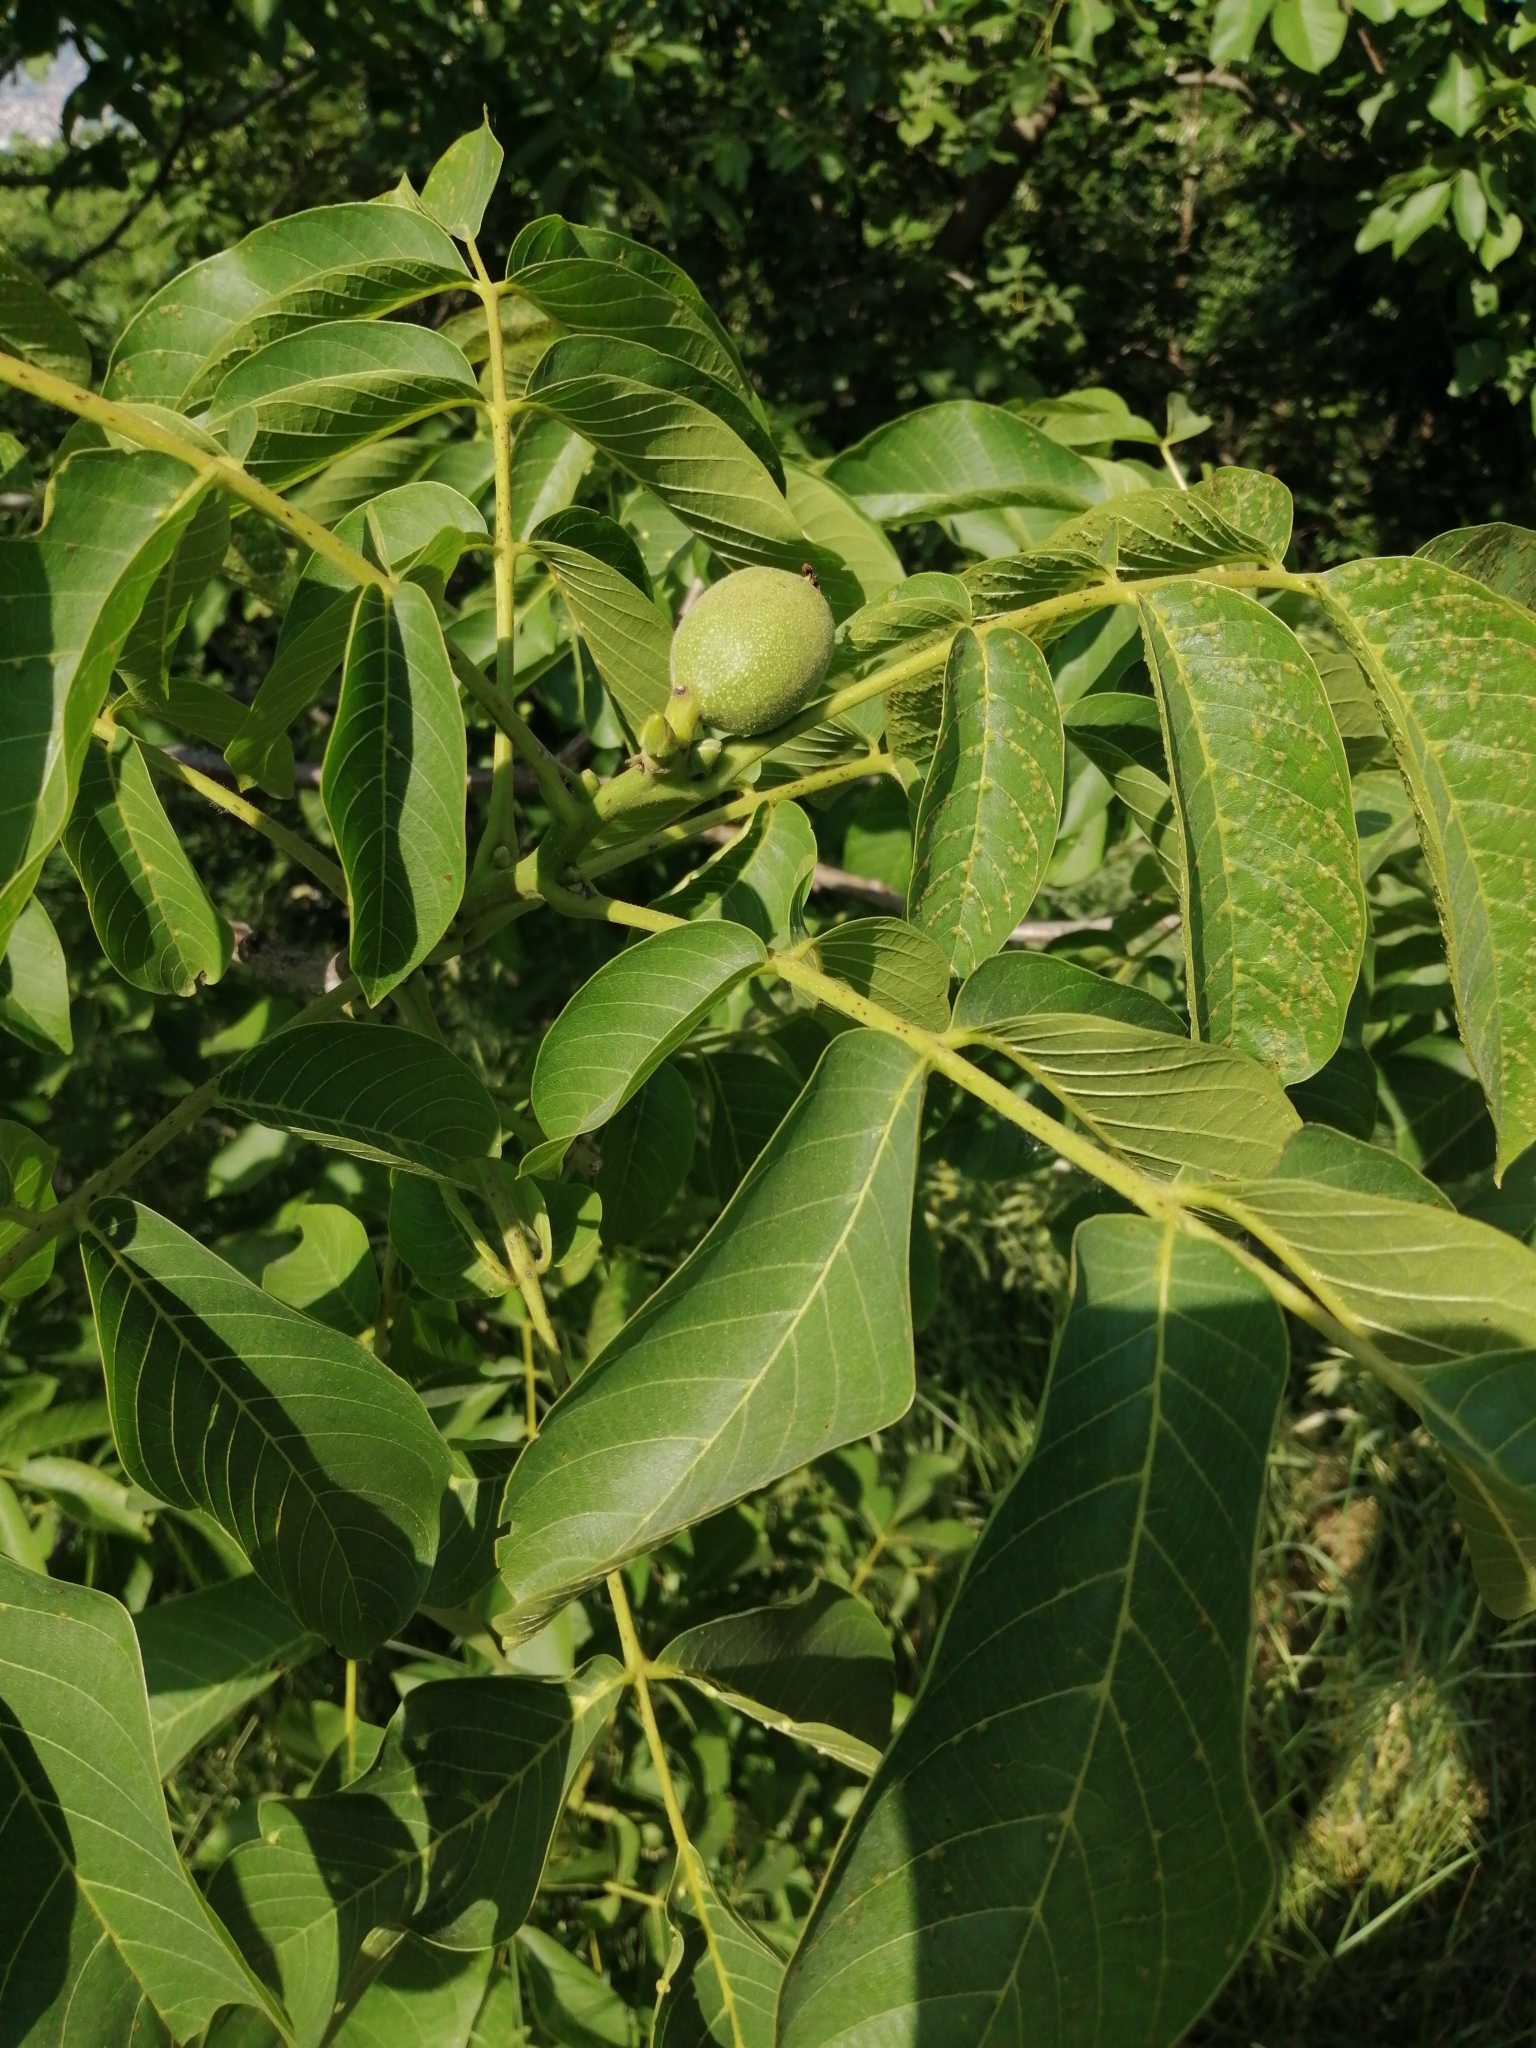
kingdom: Plantae
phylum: Tracheophyta
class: Magnoliopsida
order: Fagales
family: Juglandaceae
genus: Juglans
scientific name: Juglans regia
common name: Walnut
